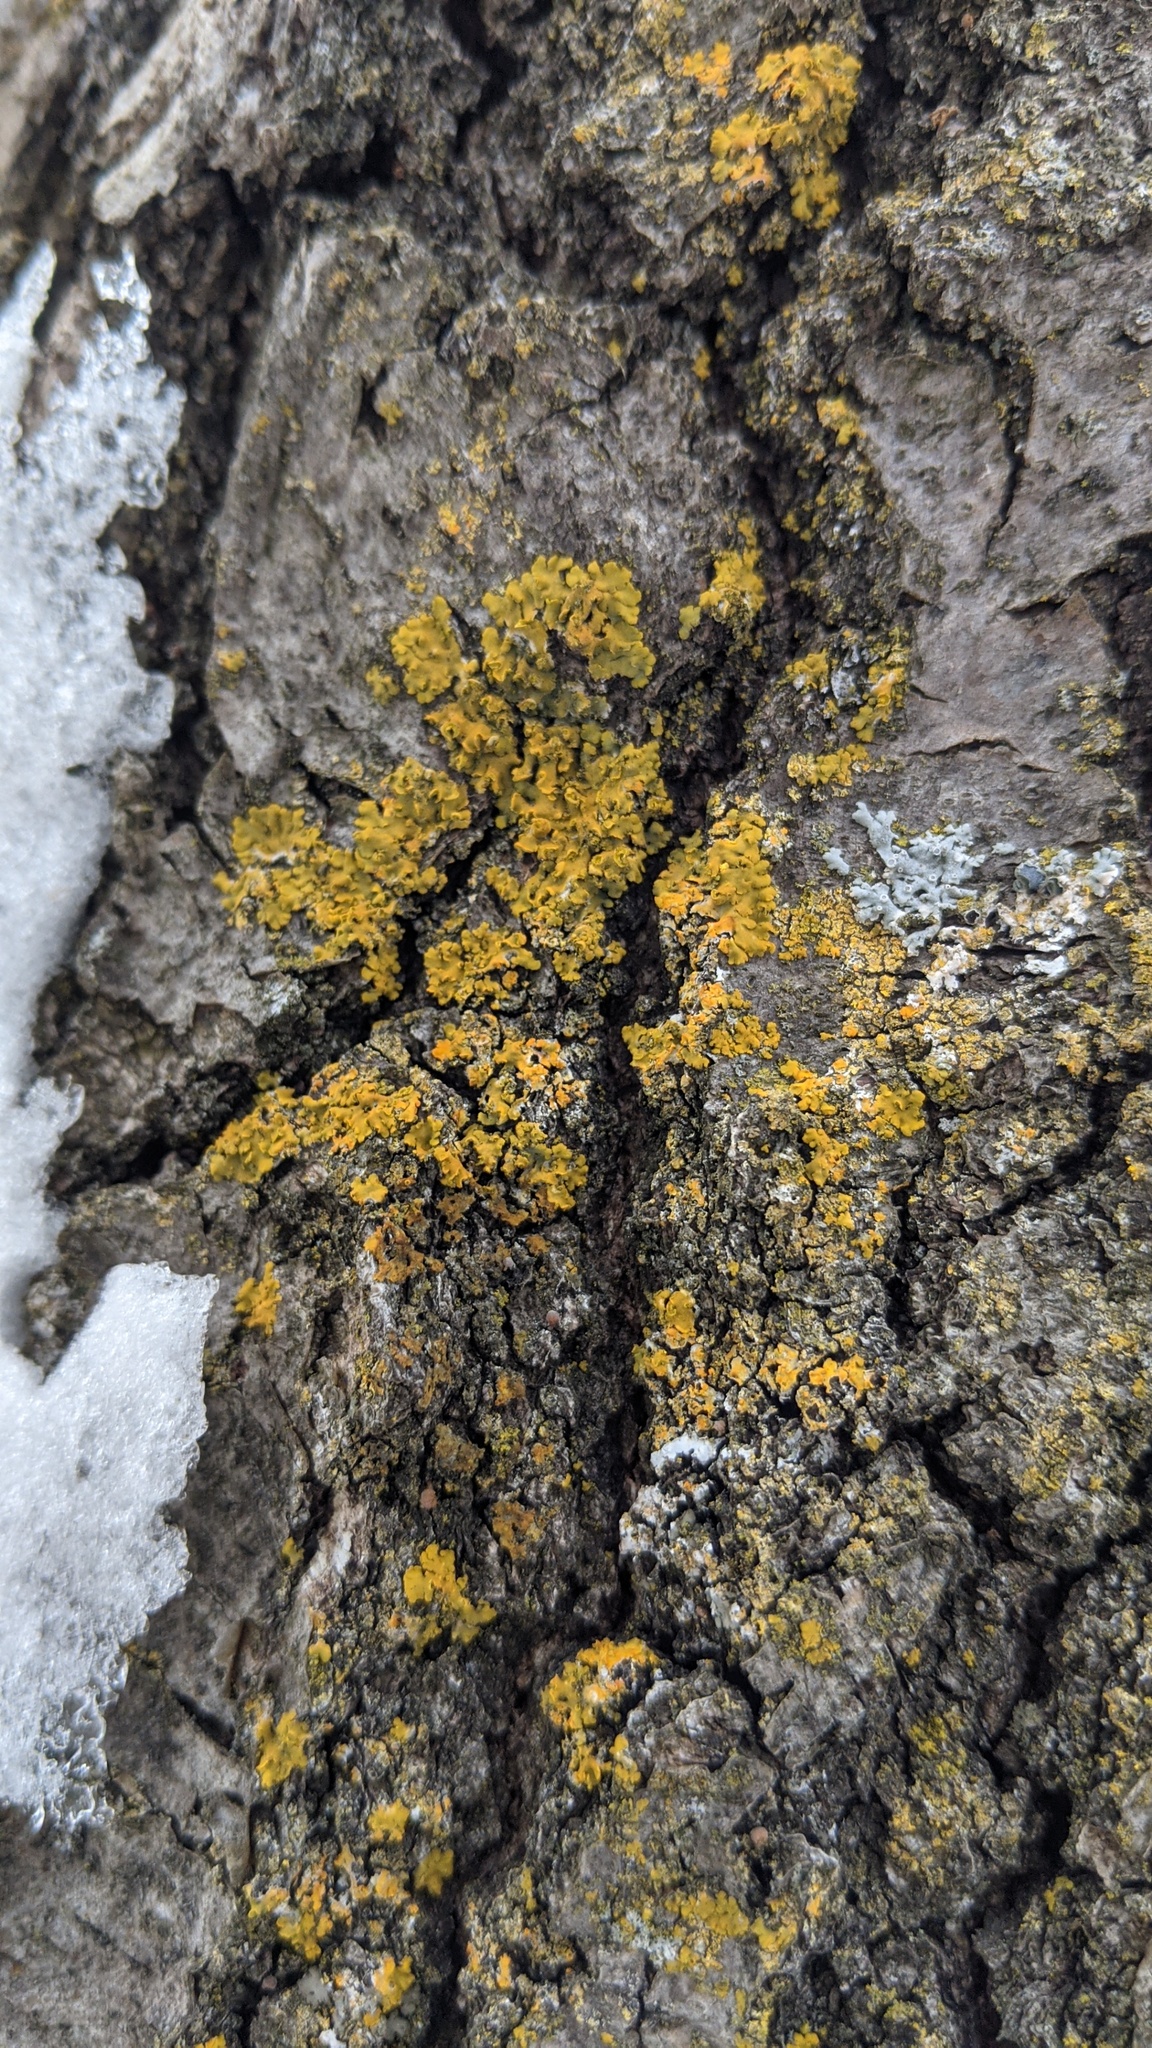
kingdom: Fungi
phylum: Ascomycota
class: Lecanoromycetes
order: Teloschistales
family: Teloschistaceae
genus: Xanthoria
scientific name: Xanthoria ulophyllodes
